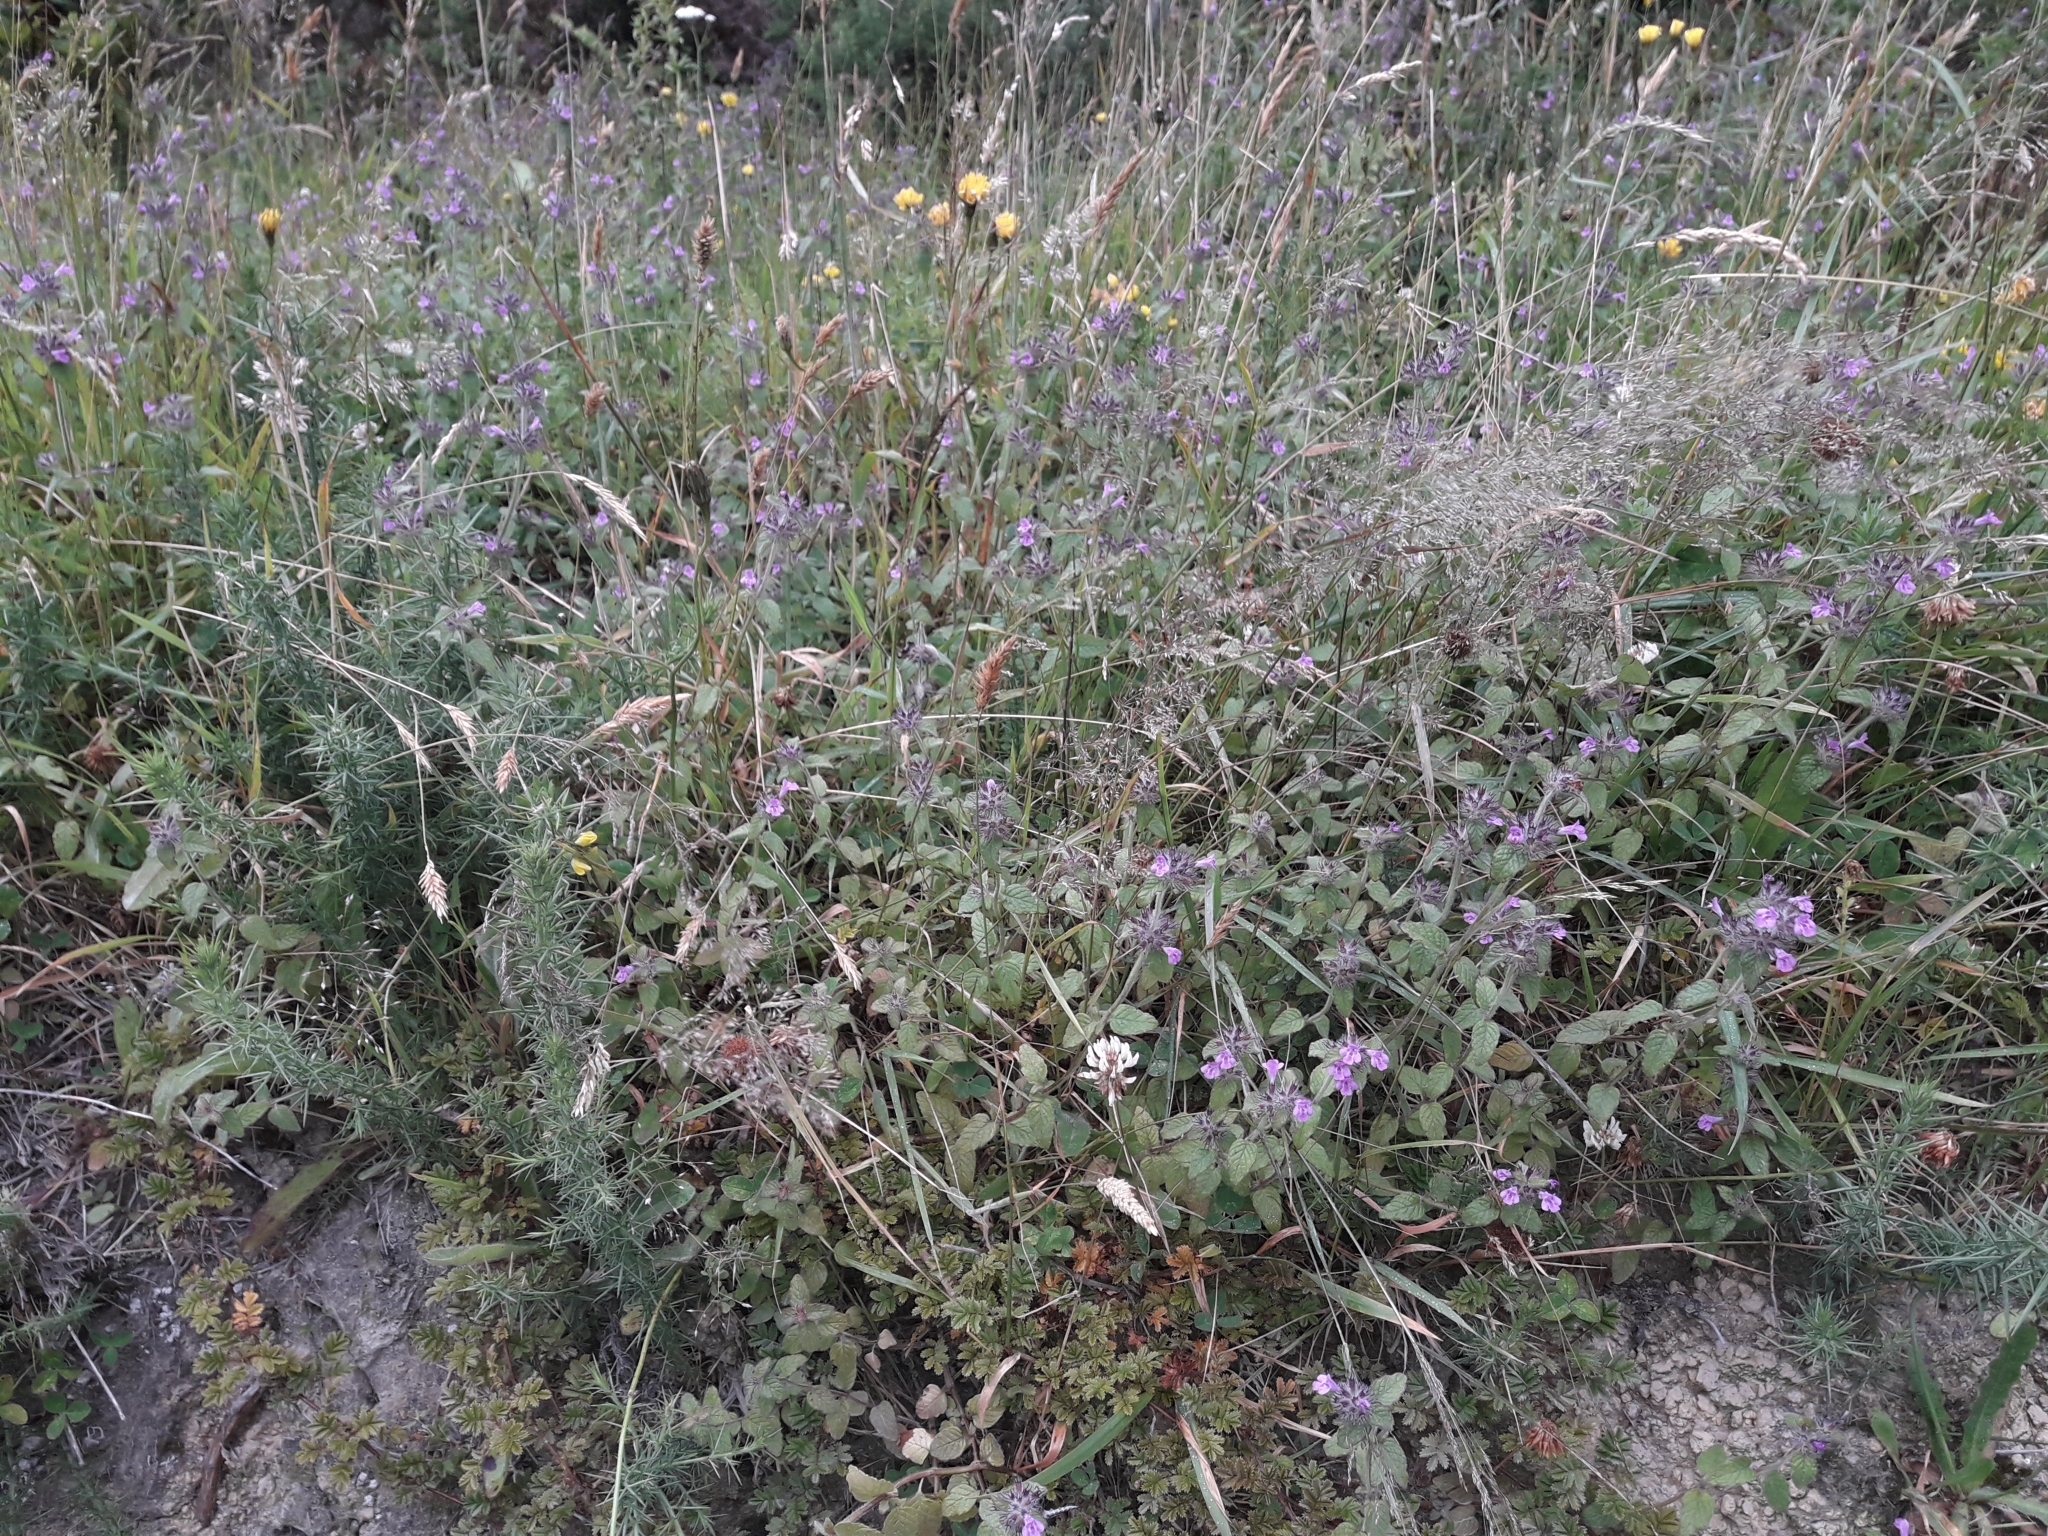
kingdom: Plantae
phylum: Tracheophyta
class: Magnoliopsida
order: Lamiales
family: Lamiaceae
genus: Clinopodium
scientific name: Clinopodium vulgare
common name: Wild basil
